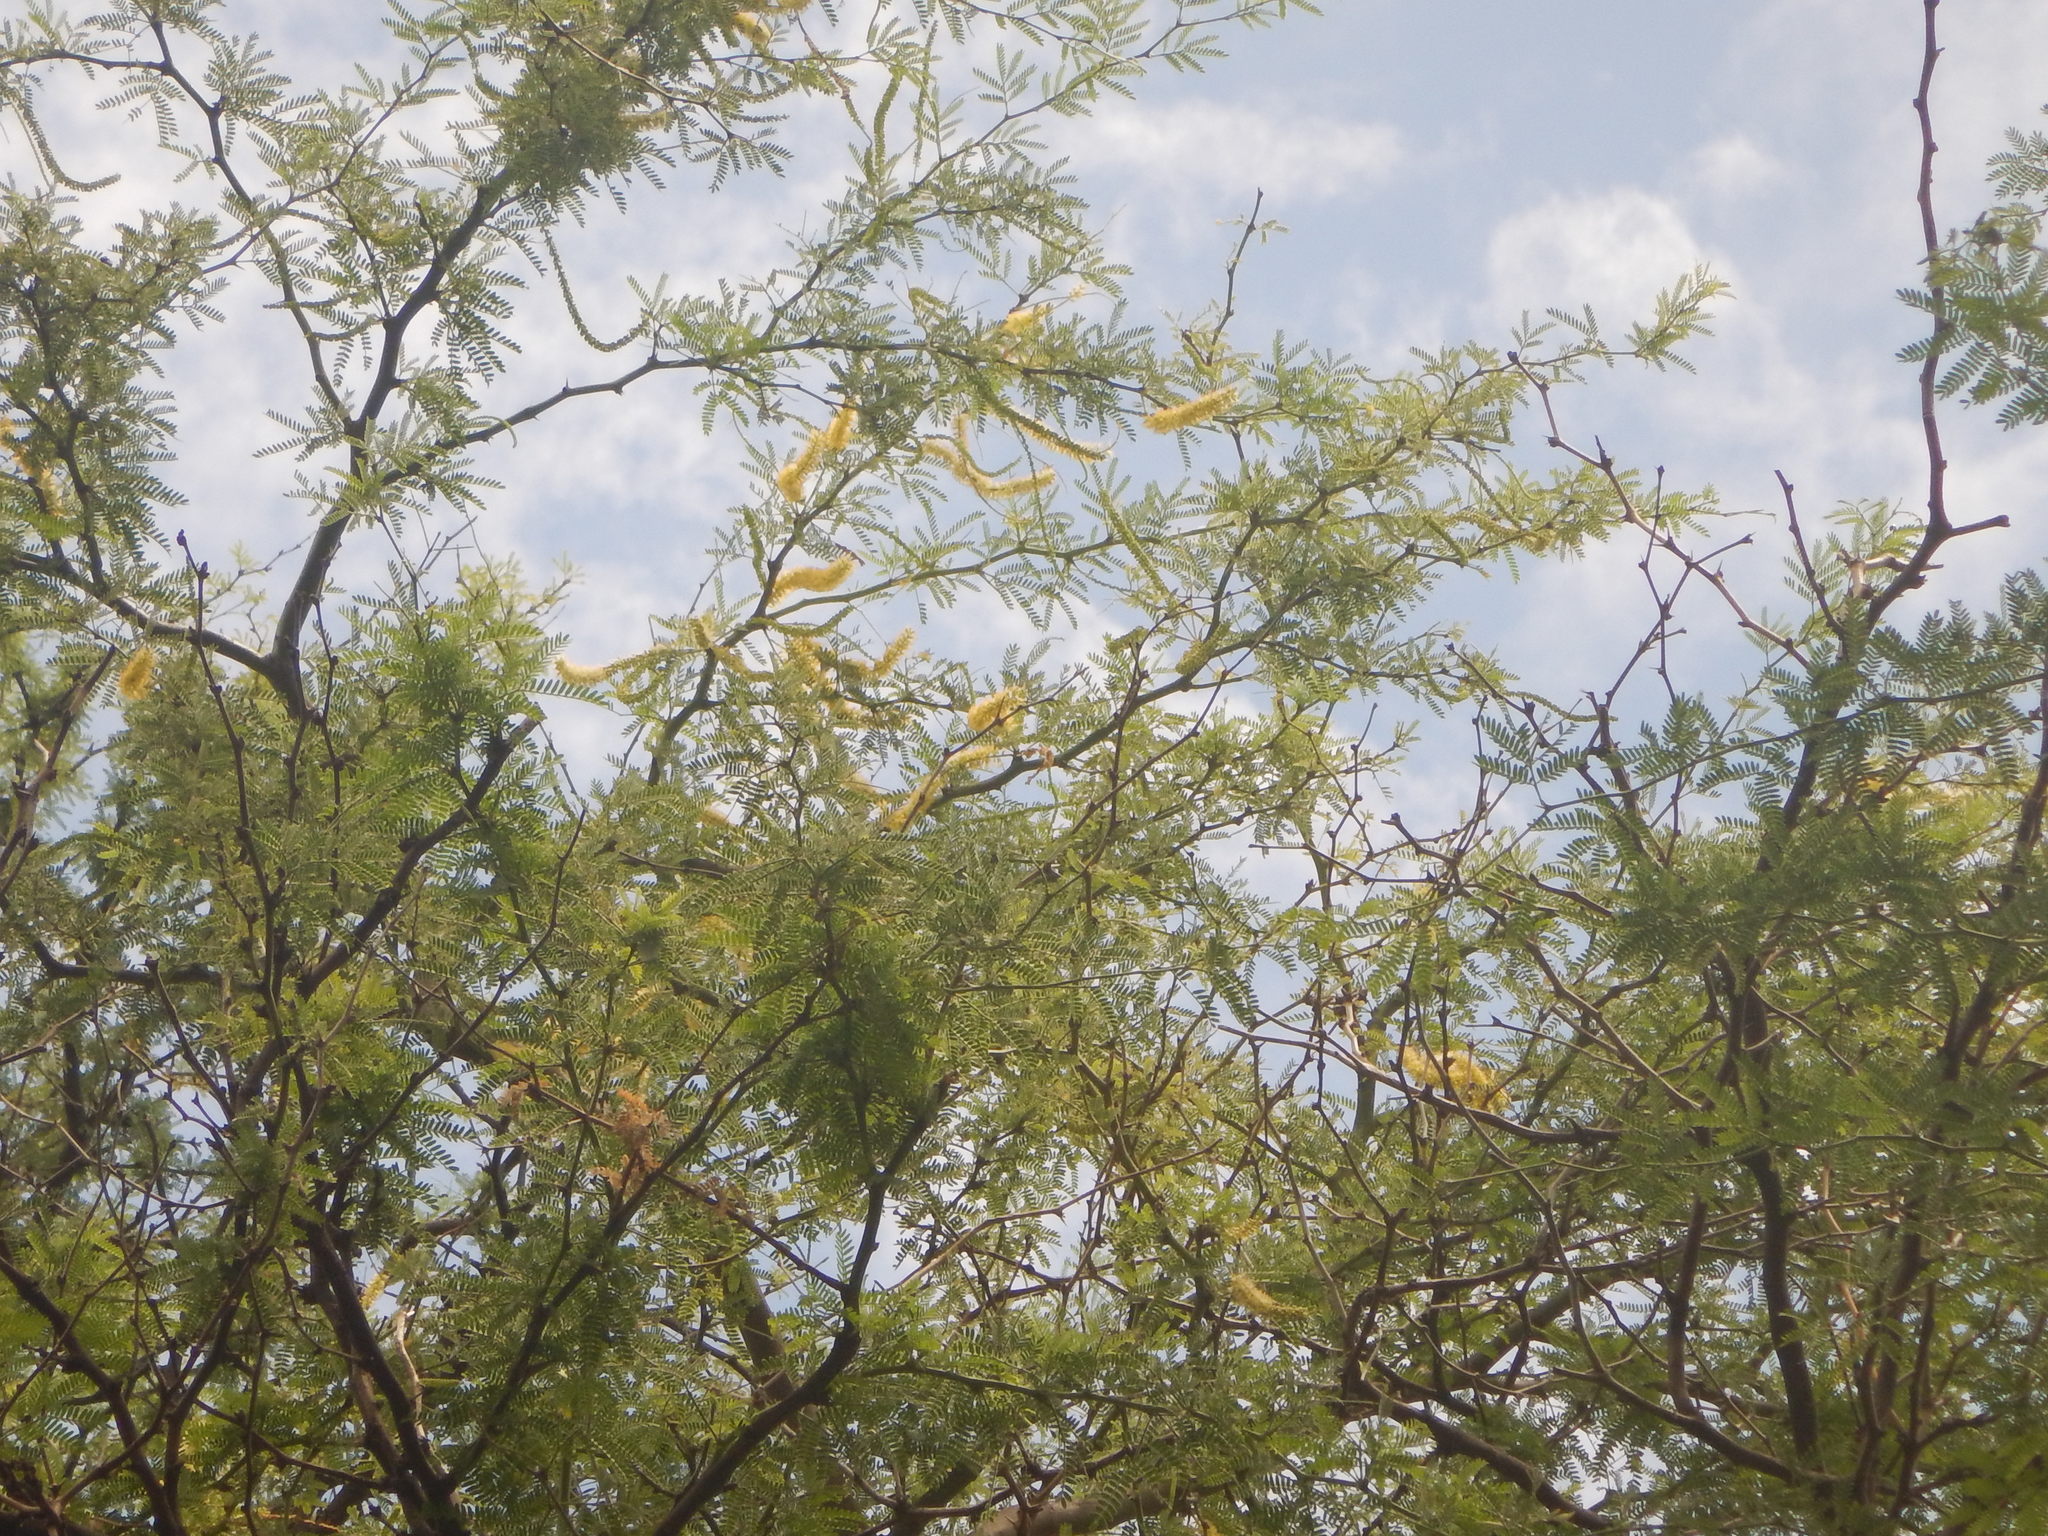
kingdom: Plantae
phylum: Tracheophyta
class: Magnoliopsida
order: Fabales
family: Fabaceae
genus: Prosopis
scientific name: Prosopis pallida
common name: Mesquite
